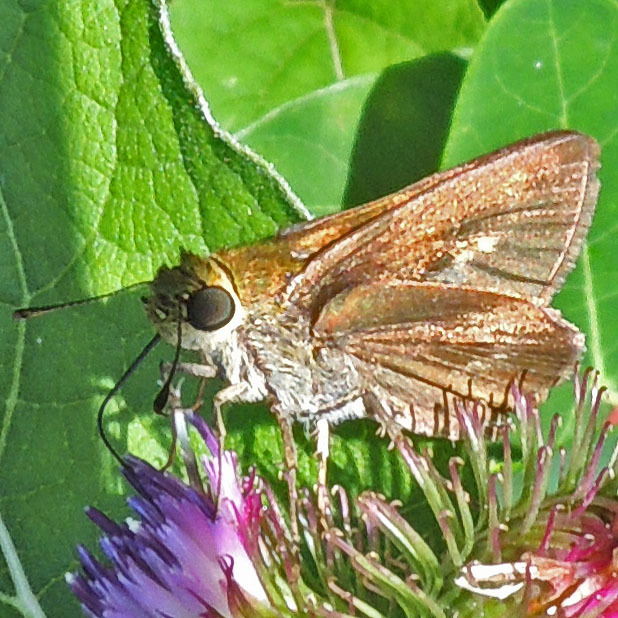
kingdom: Animalia
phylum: Arthropoda
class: Insecta
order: Lepidoptera
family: Hesperiidae
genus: Euphyes
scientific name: Euphyes vestris
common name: Dun skipper
